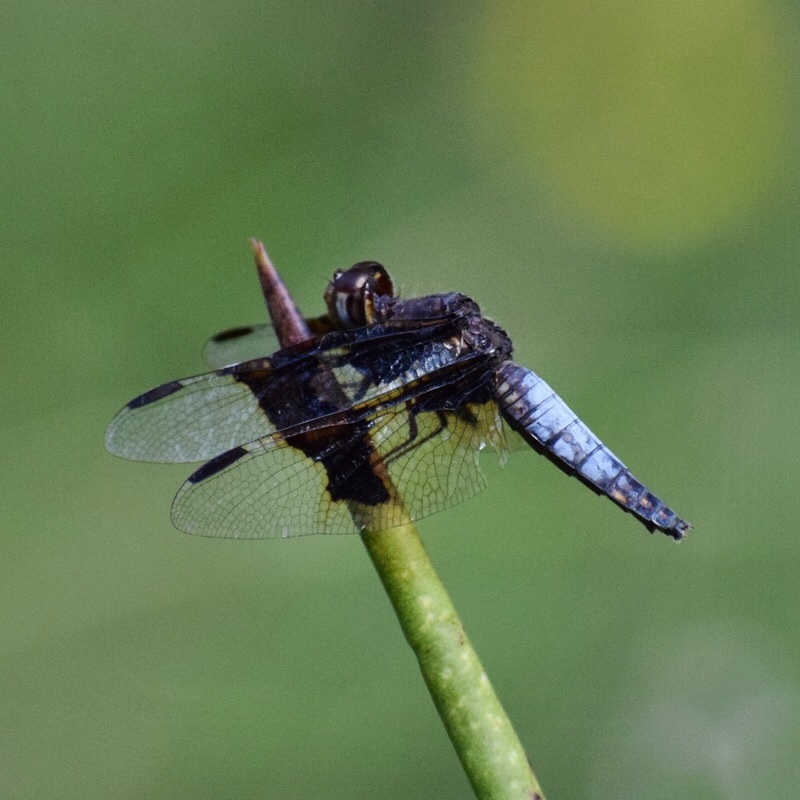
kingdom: Animalia
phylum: Arthropoda
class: Insecta
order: Odonata
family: Libellulidae
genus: Palpopleura
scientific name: Palpopleura lucia
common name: Lucia widow
